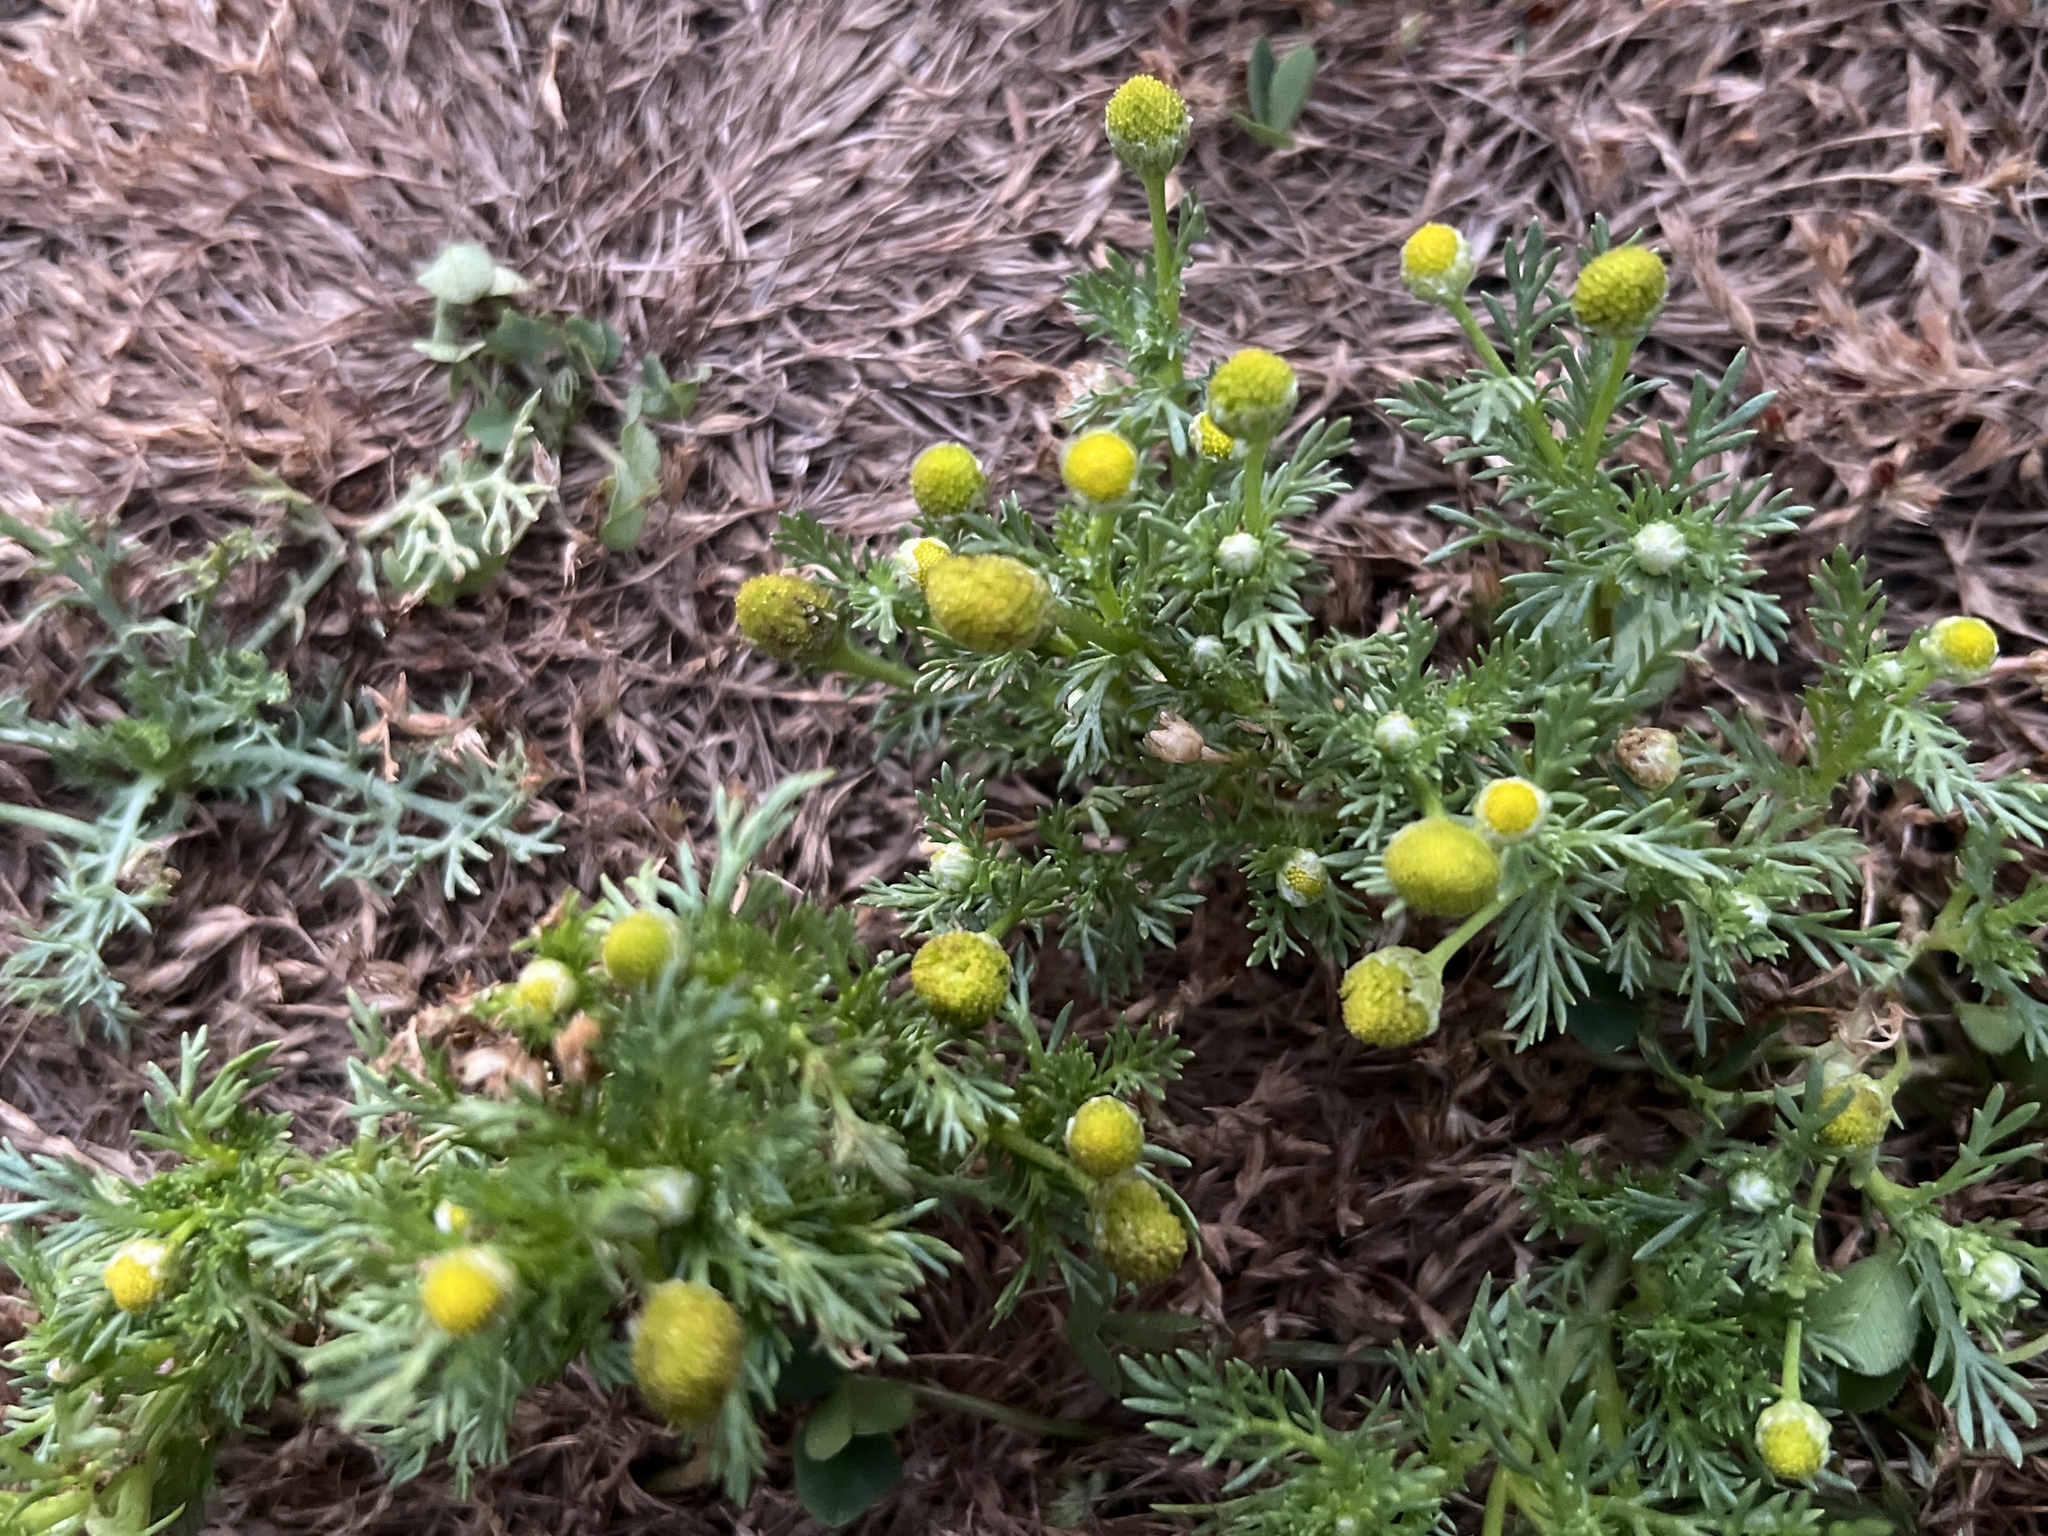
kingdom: Plantae
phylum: Tracheophyta
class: Magnoliopsida
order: Asterales
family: Asteraceae
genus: Matricaria
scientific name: Matricaria discoidea
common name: Disc mayweed
